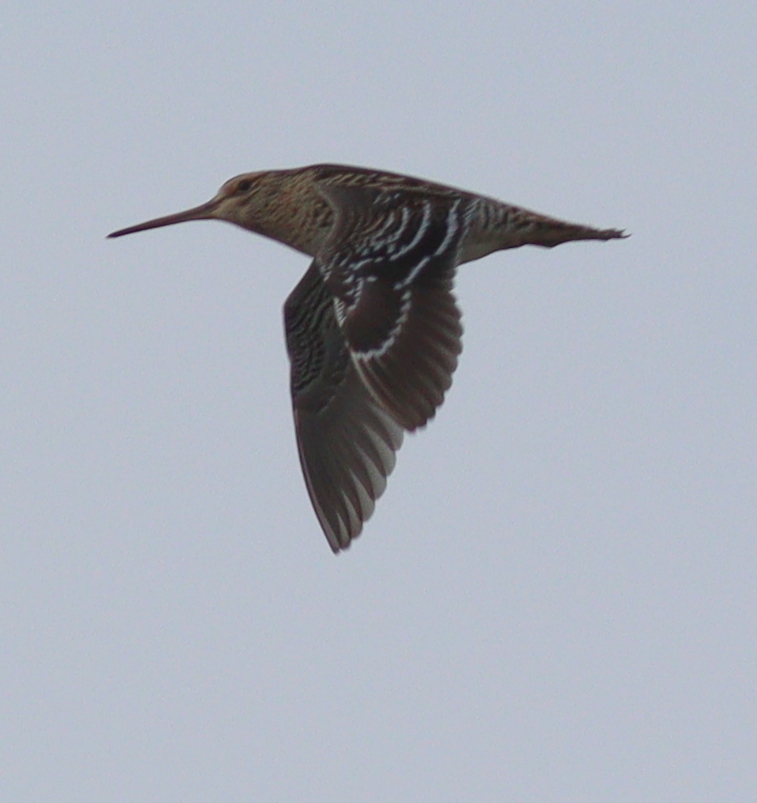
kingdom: Animalia
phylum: Chordata
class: Aves
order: Charadriiformes
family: Scolopacidae
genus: Gallinago
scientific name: Gallinago media
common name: Great snipe
